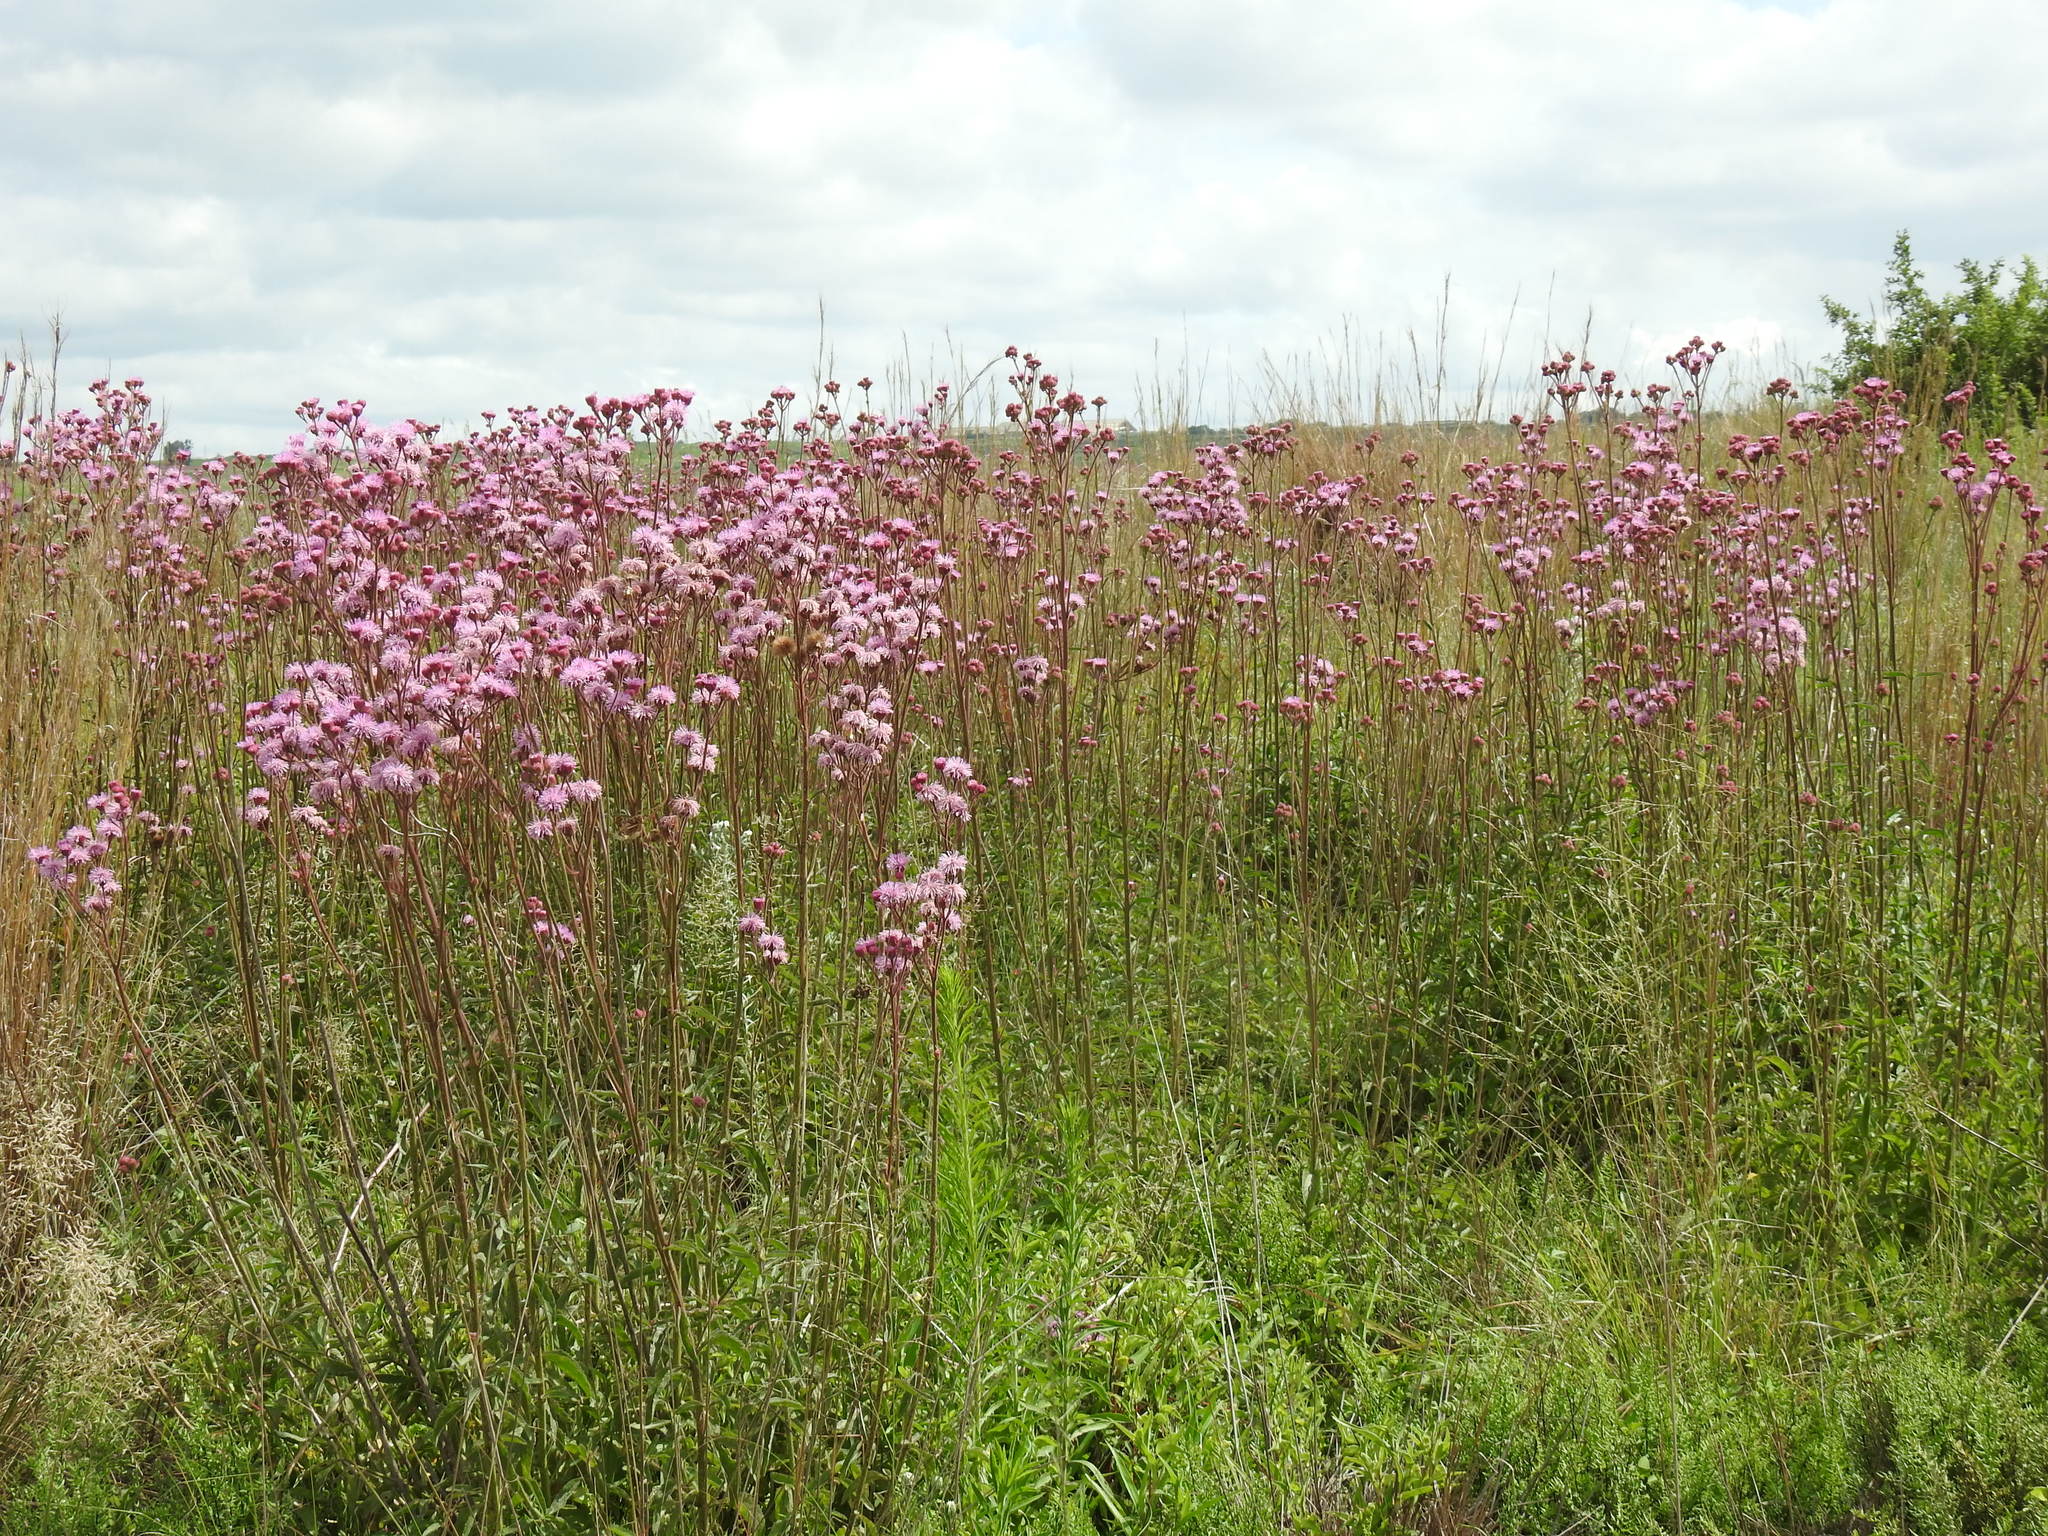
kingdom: Plantae
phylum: Tracheophyta
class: Magnoliopsida
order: Asterales
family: Asteraceae
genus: Campuloclinium
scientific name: Campuloclinium macrocephalum
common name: Pompomweed
